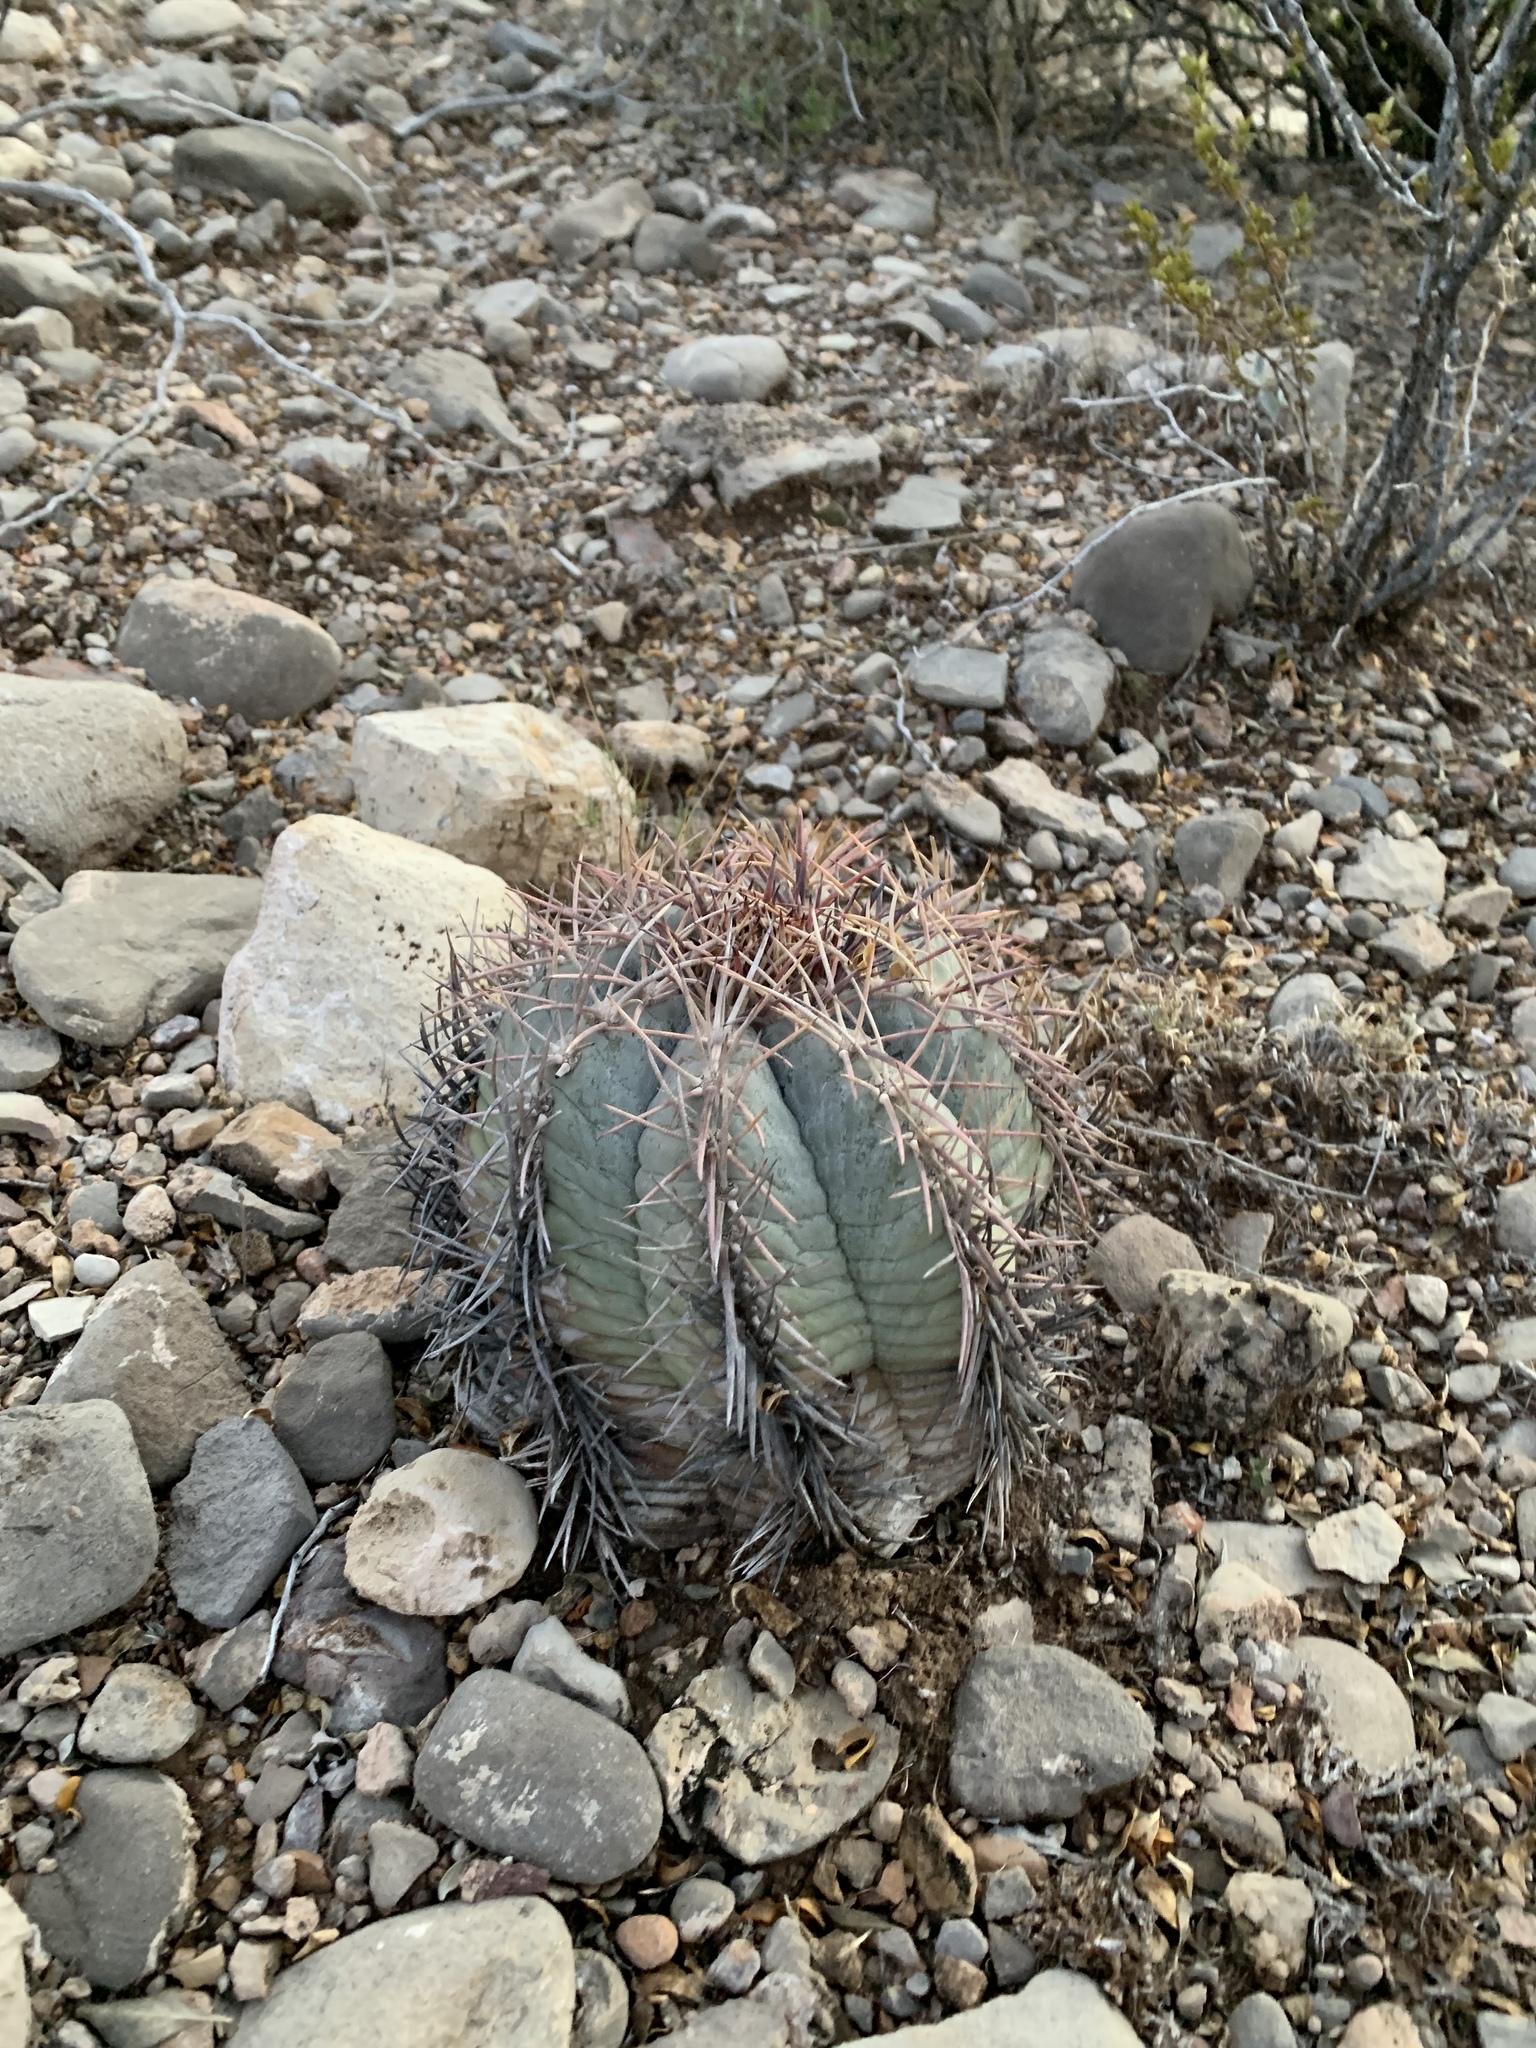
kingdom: Plantae
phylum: Tracheophyta
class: Magnoliopsida
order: Caryophyllales
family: Cactaceae
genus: Echinocactus
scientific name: Echinocactus horizonthalonius
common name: Devilshead
